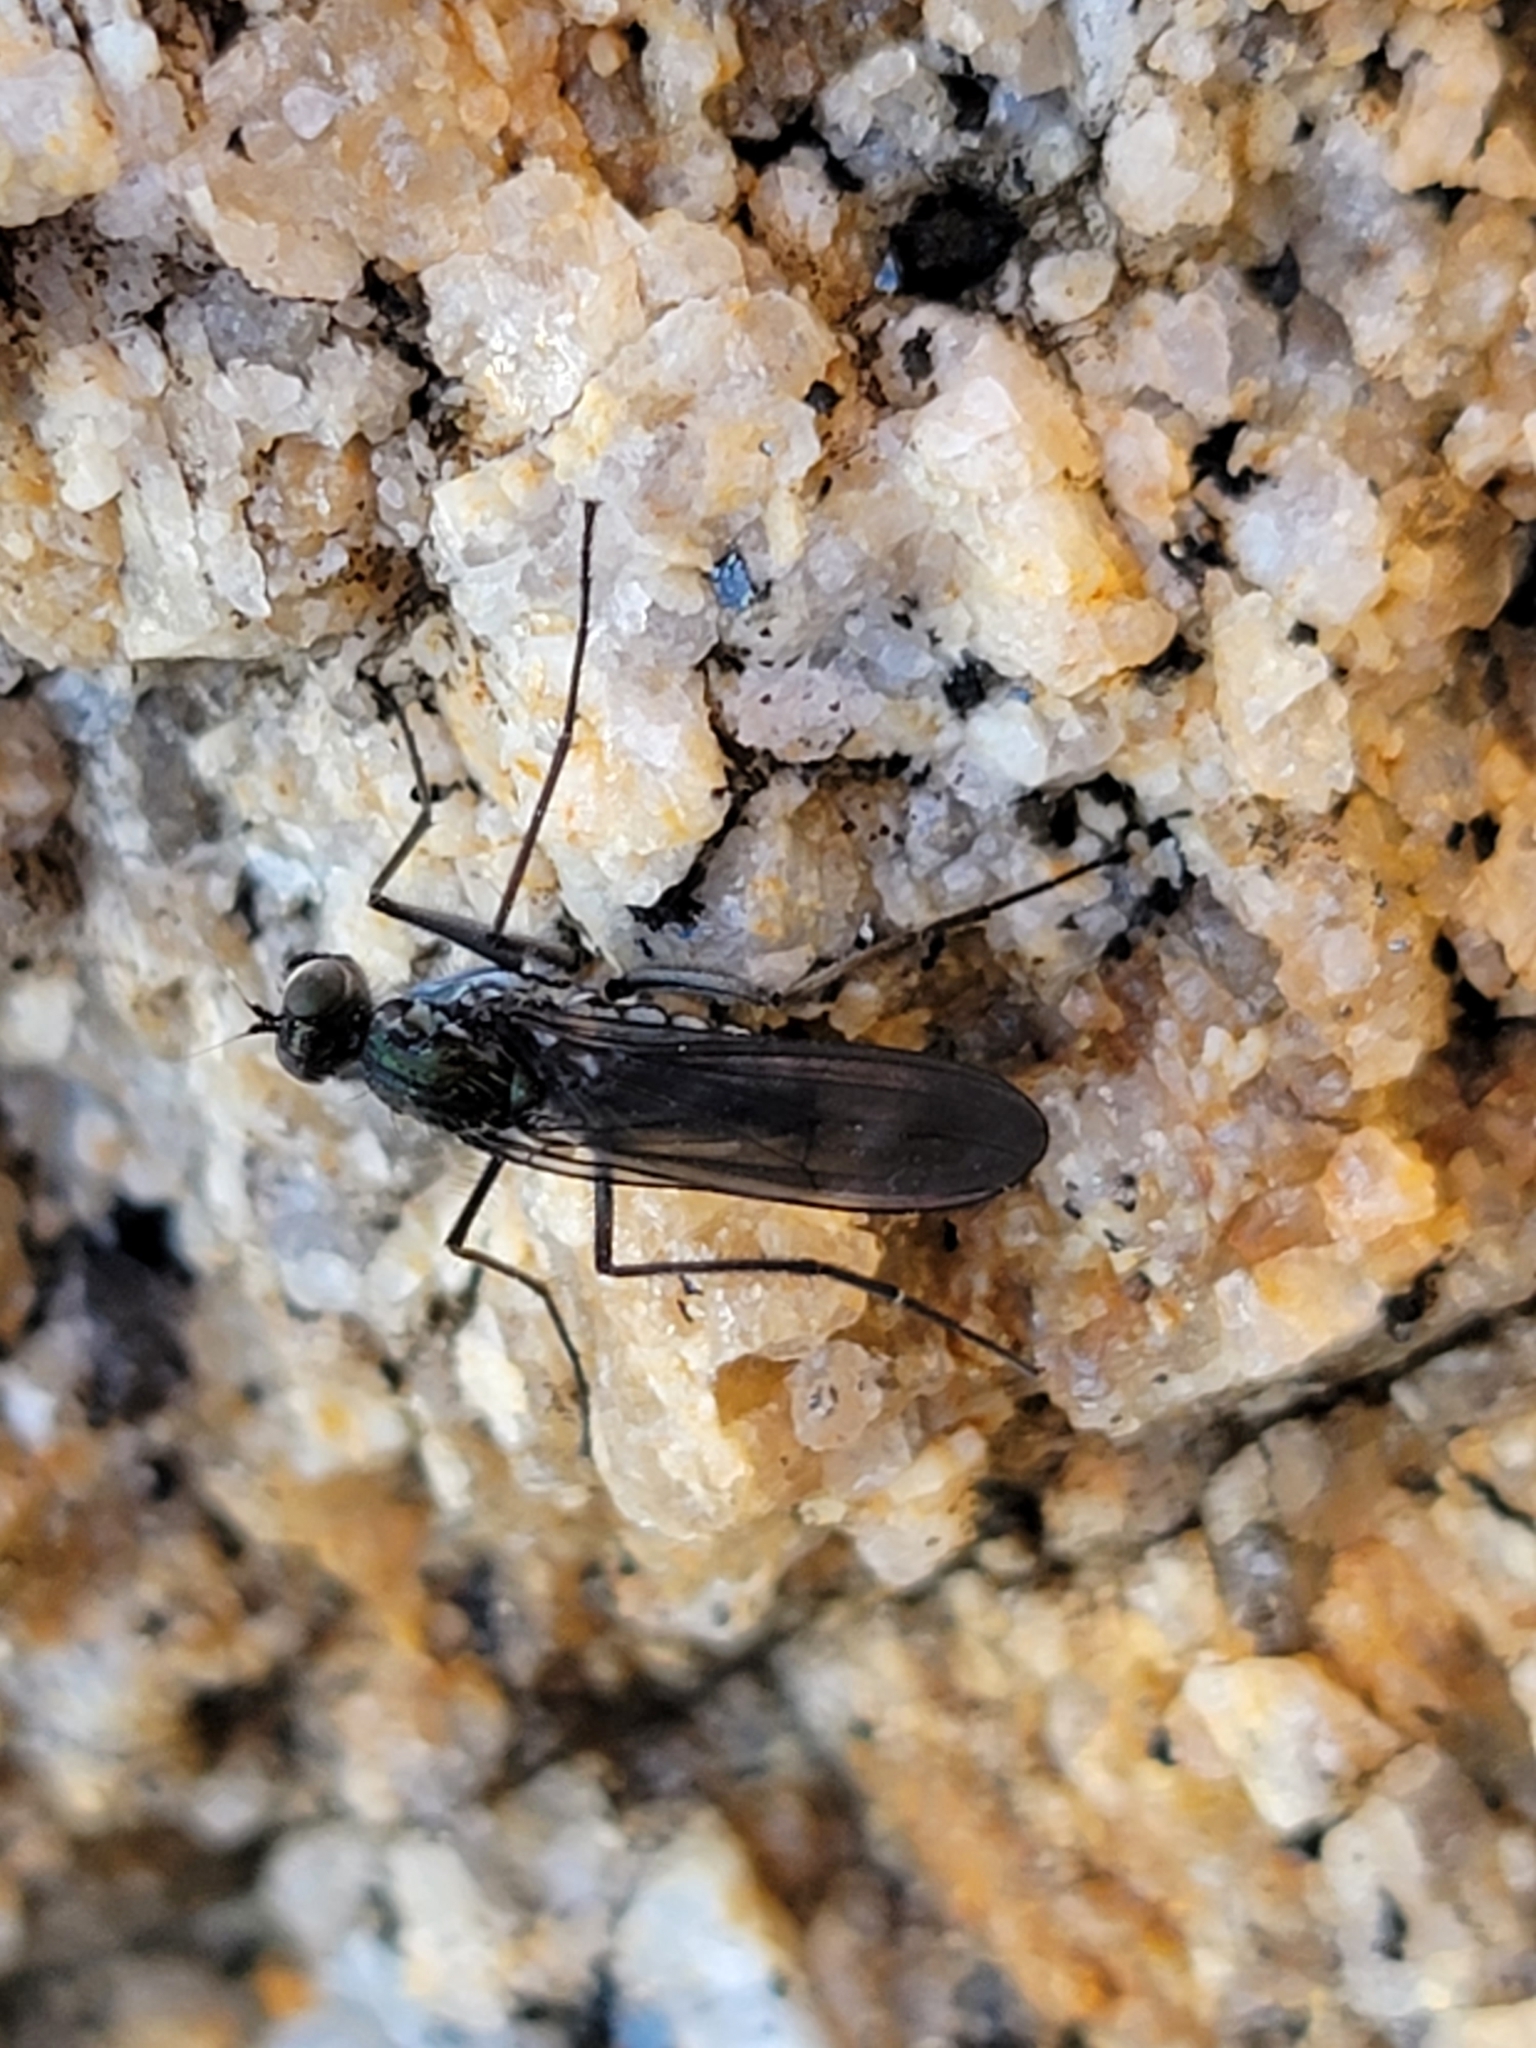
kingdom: Animalia
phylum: Arthropoda
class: Insecta
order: Diptera
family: Dolichopodidae
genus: Thambemyia
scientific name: Thambemyia borealis
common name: Fly
